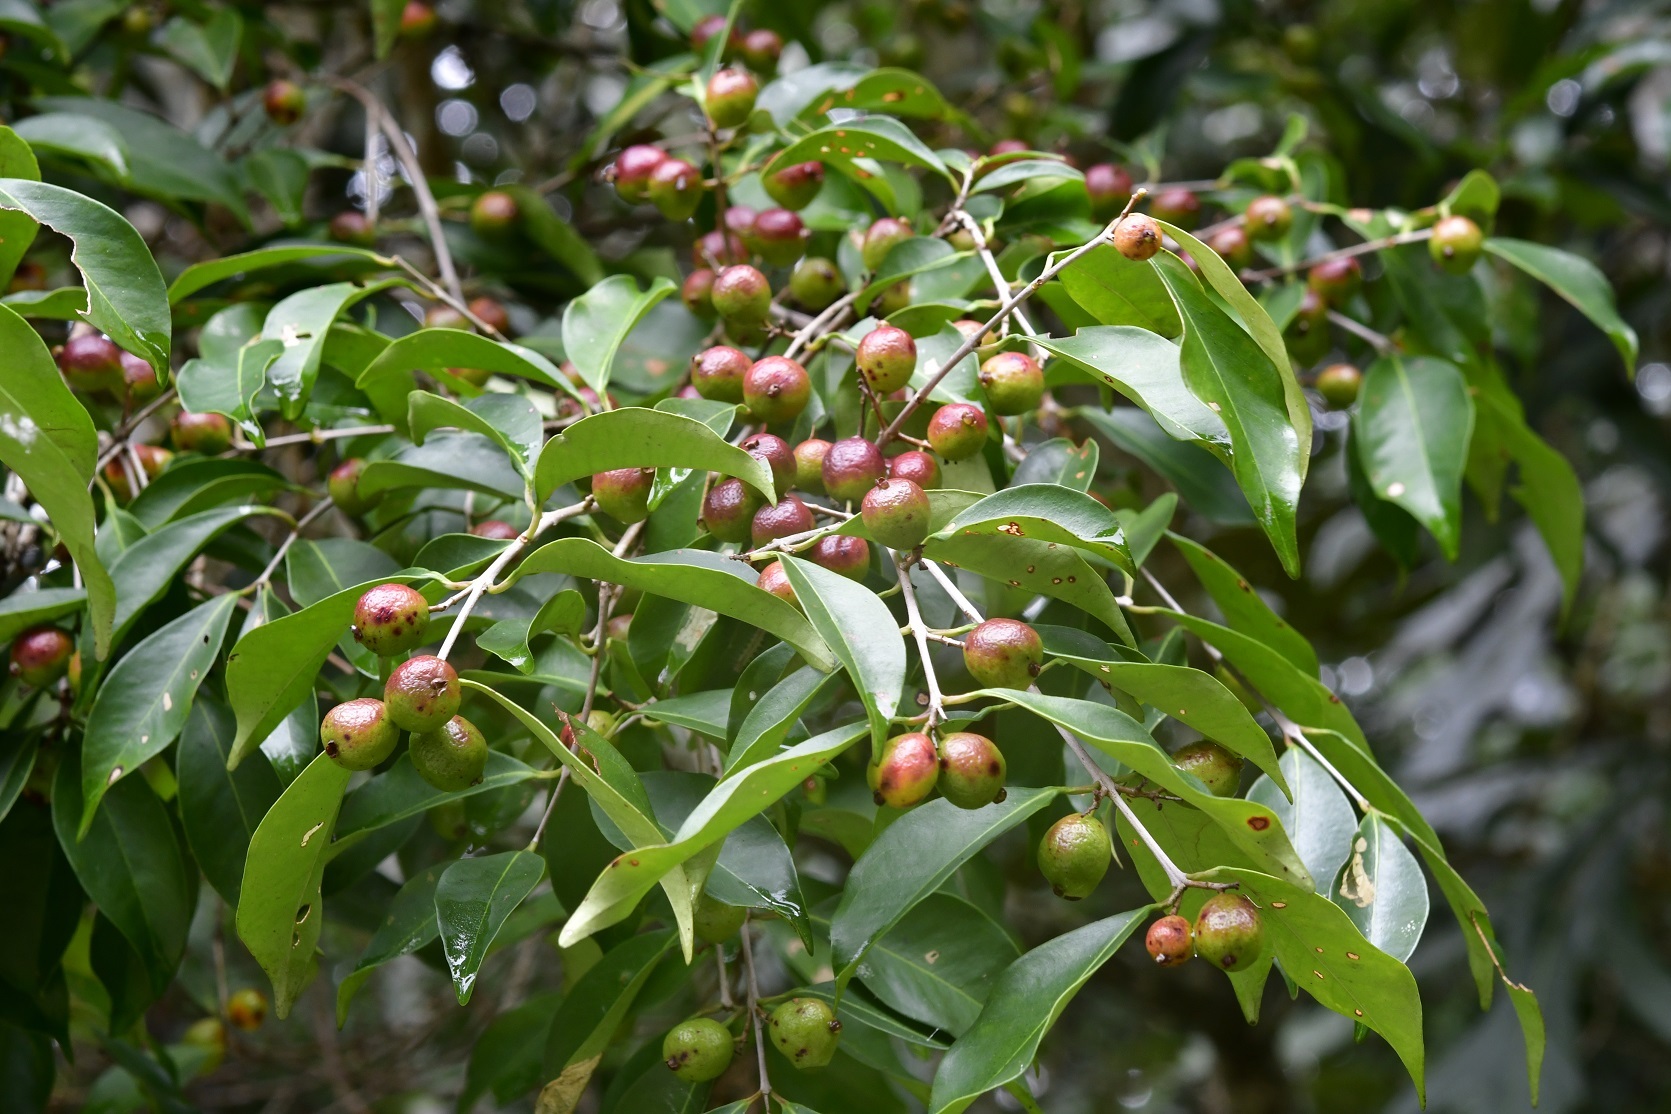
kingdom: Plantae
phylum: Tracheophyta
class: Magnoliopsida
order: Myrtales
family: Myrtaceae
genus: Eugenia
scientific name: Eugenia capuli
